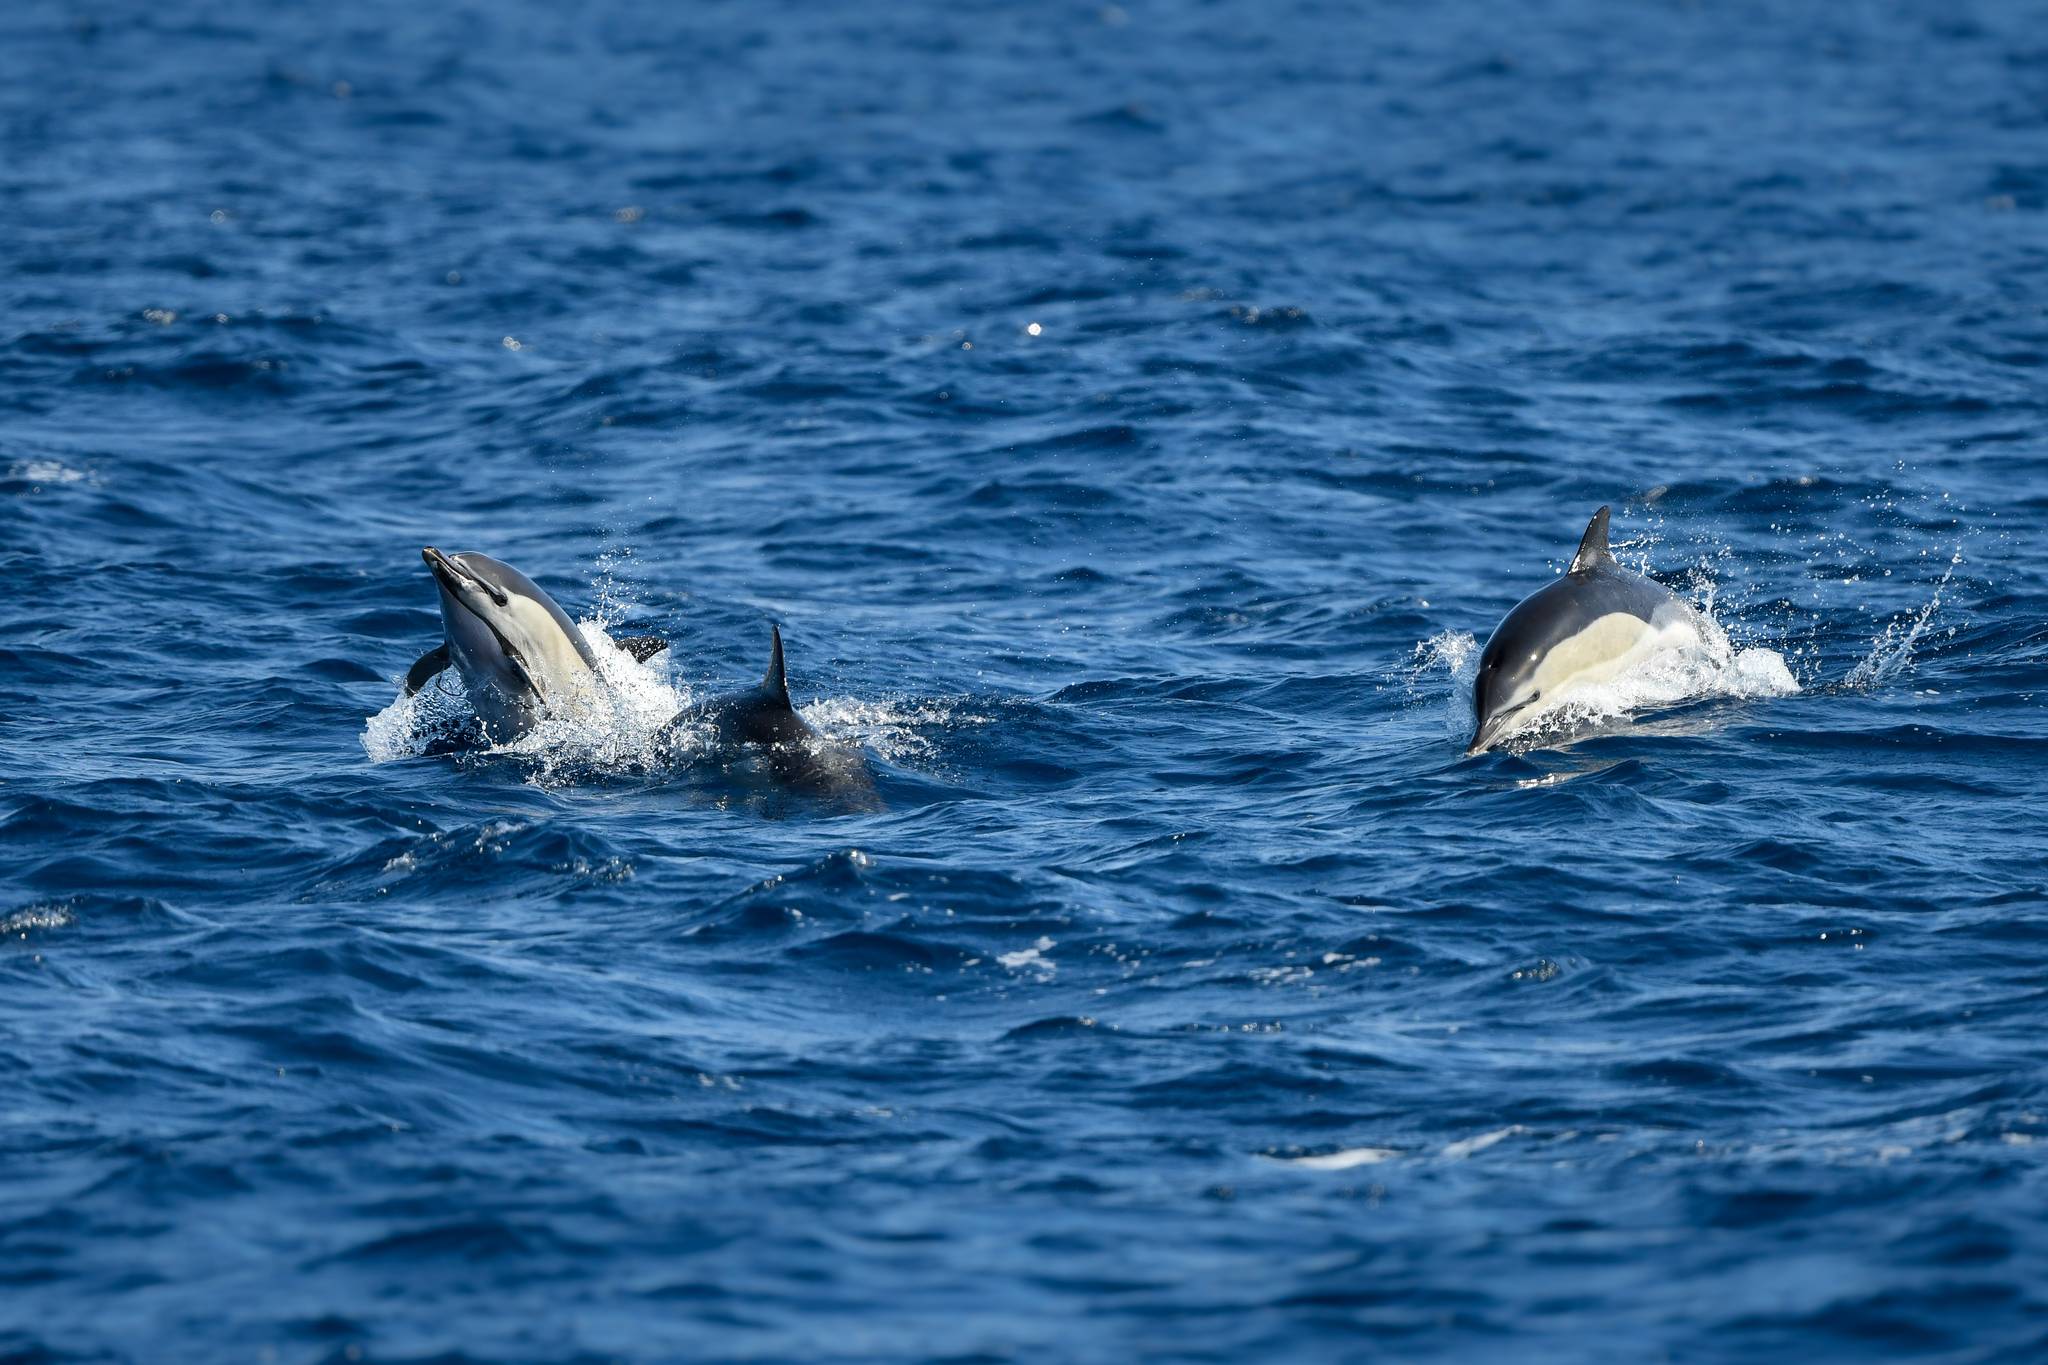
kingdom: Animalia
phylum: Chordata
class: Mammalia
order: Cetacea
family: Delphinidae
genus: Delphinus
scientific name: Delphinus delphis
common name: Common dolphin
